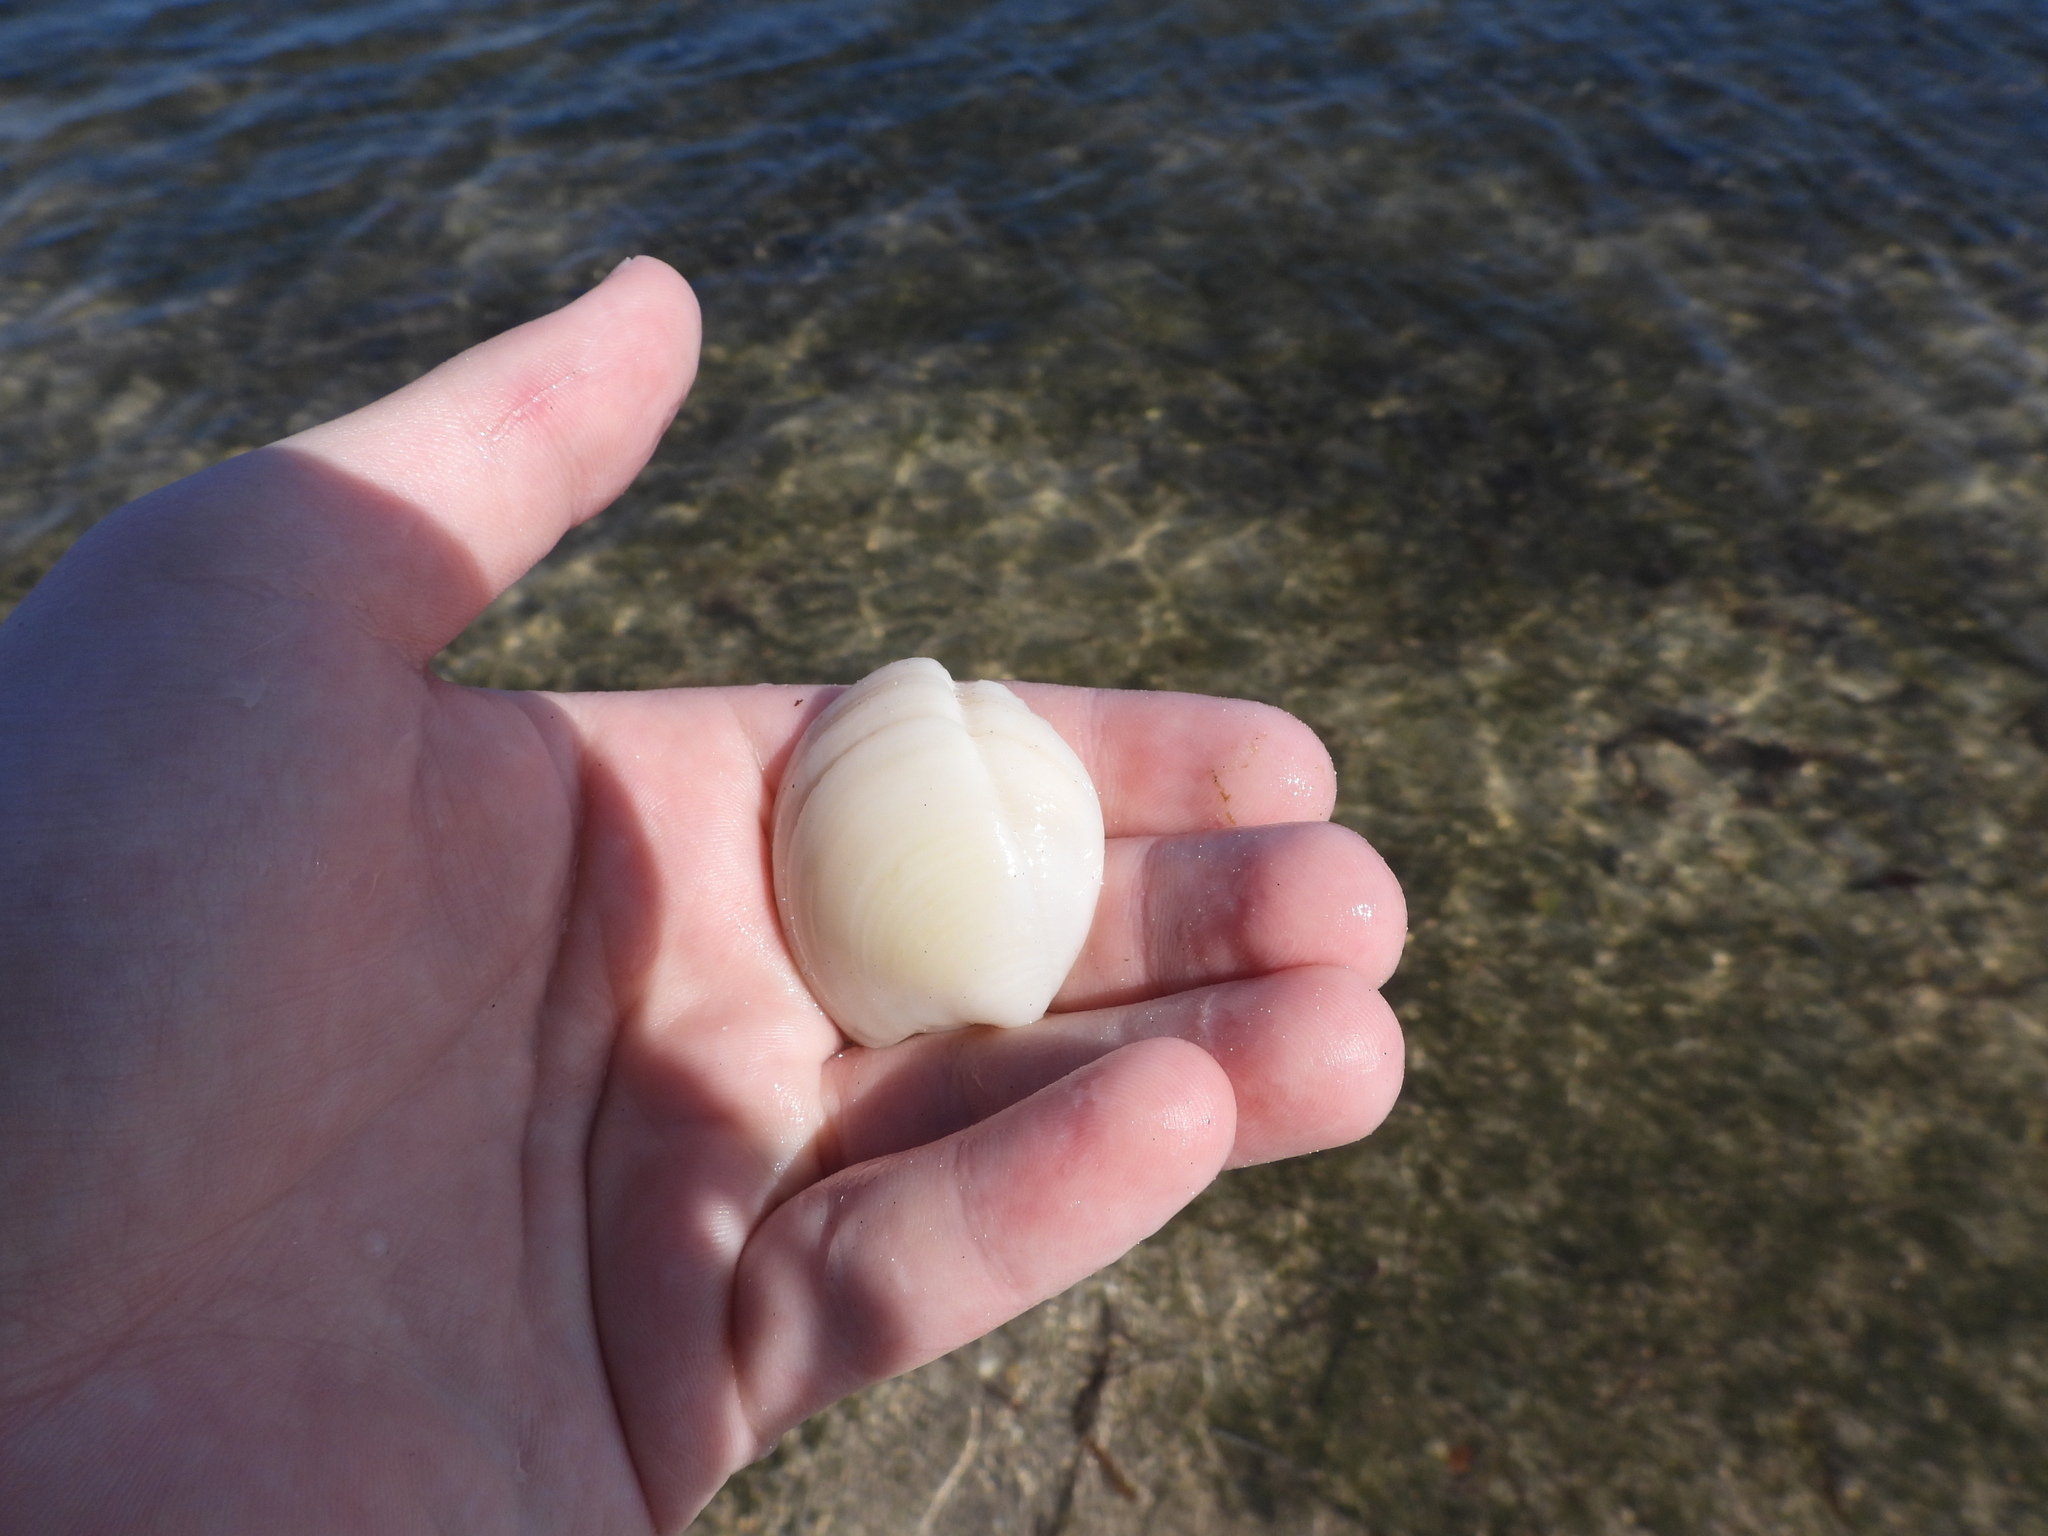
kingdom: Animalia
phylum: Mollusca
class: Bivalvia
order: Lucinida
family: Lucinidae
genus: Lucina
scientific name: Lucina pensylvanica
